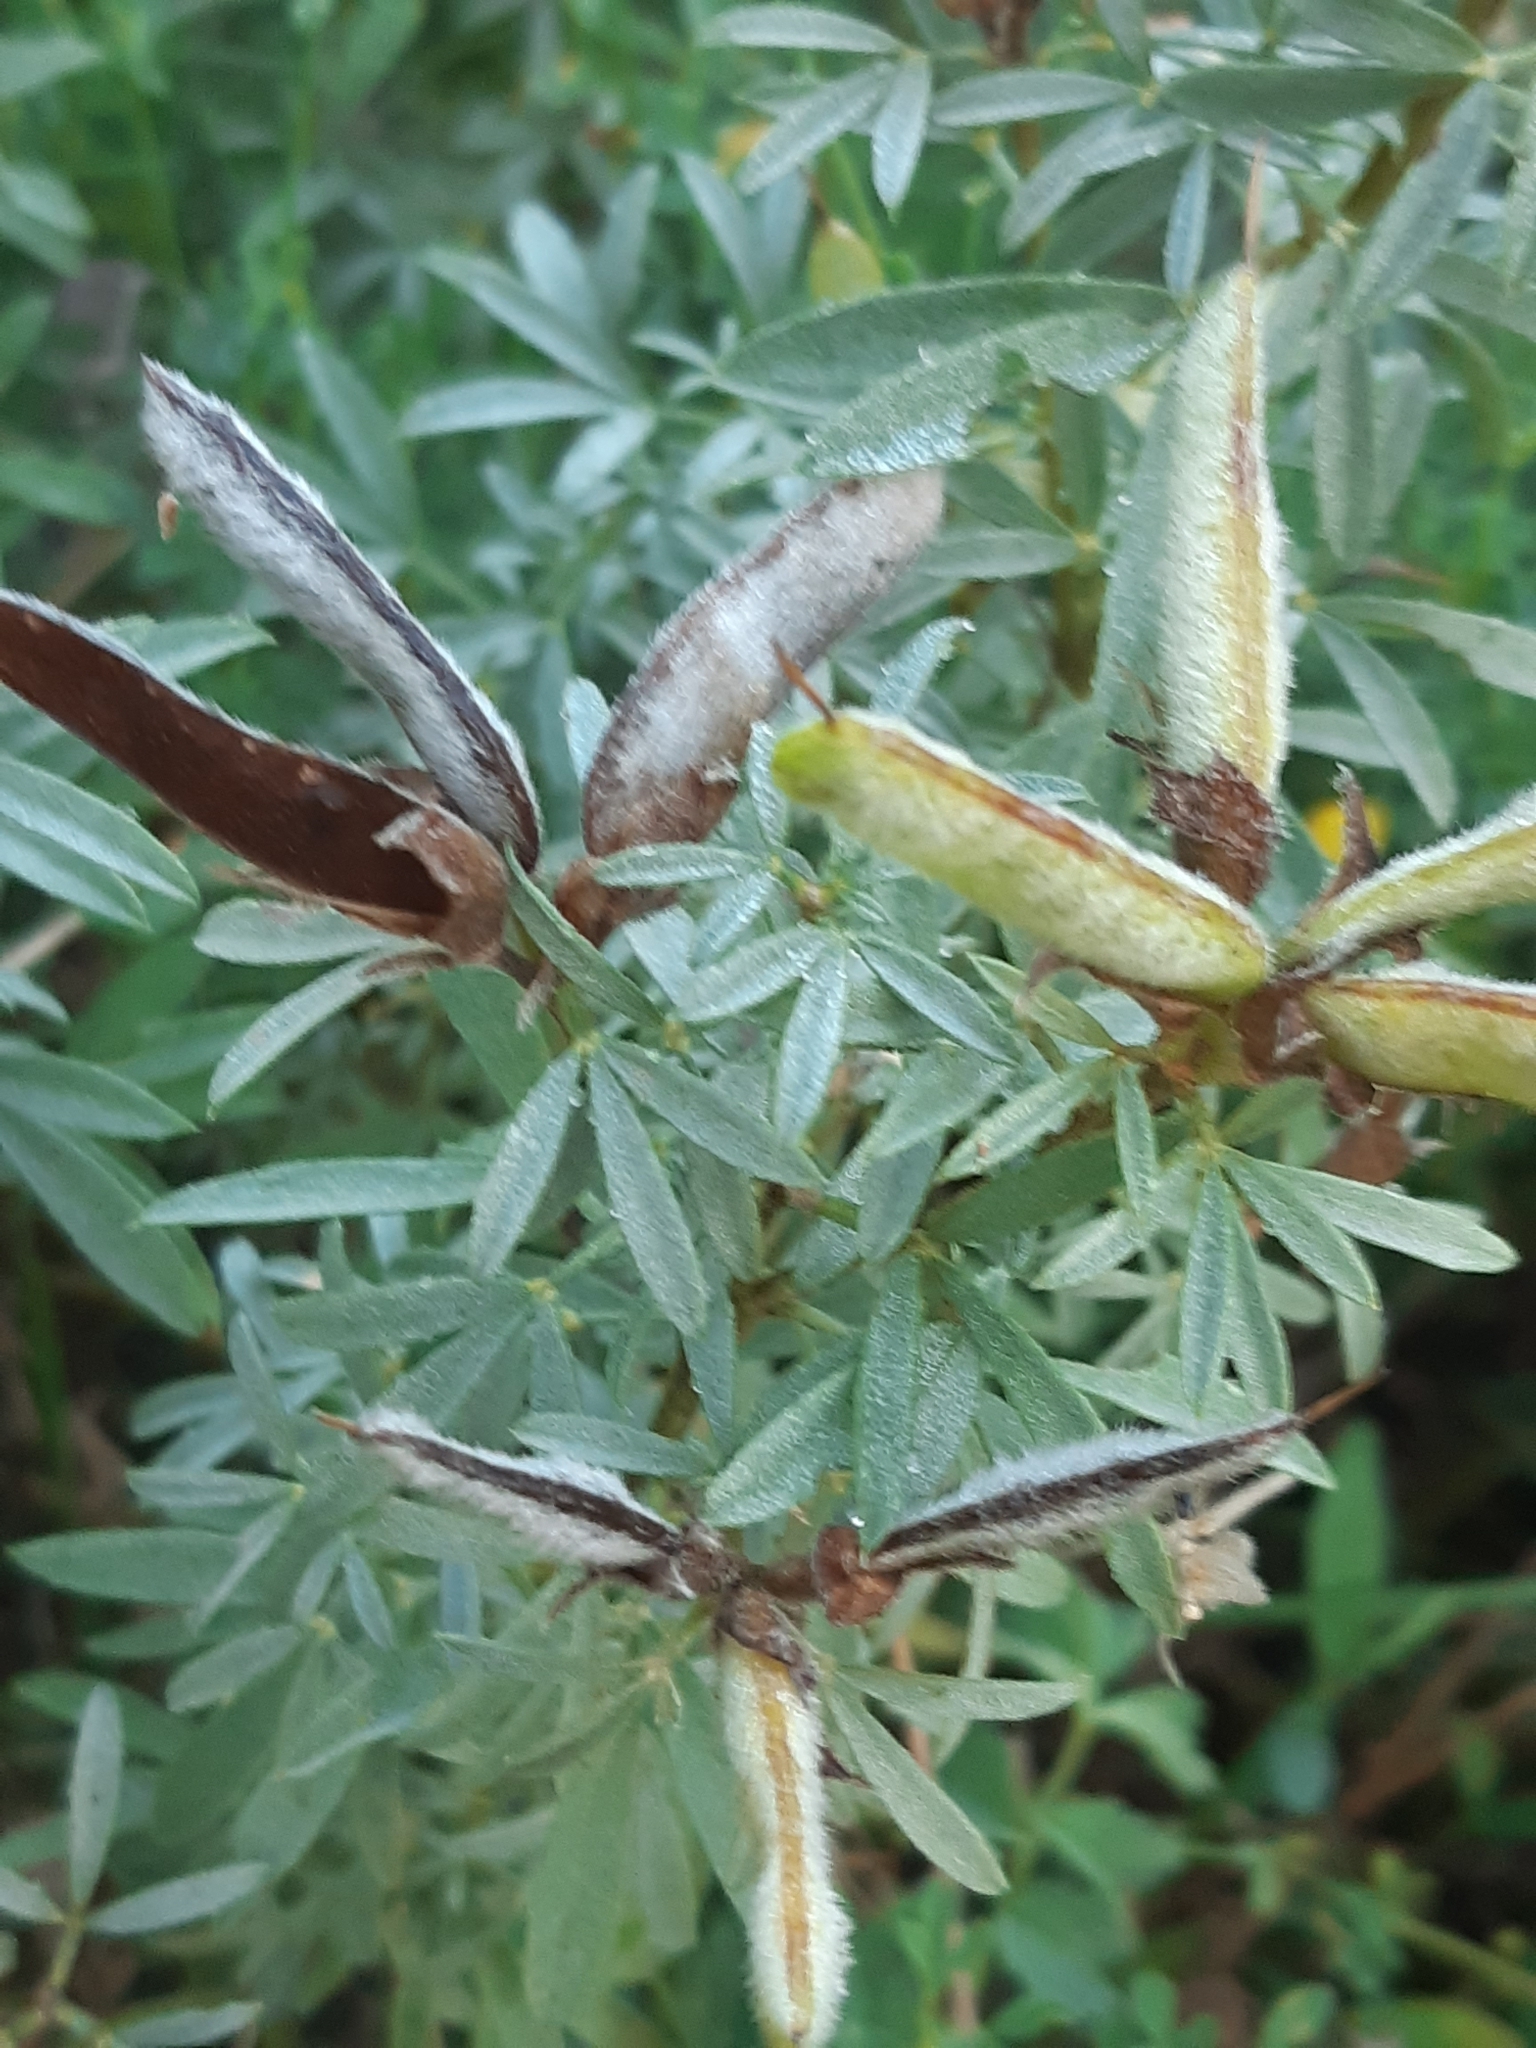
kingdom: Plantae
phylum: Tracheophyta
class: Magnoliopsida
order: Fabales
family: Fabaceae
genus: Chamaecytisus
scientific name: Chamaecytisus austriacus
